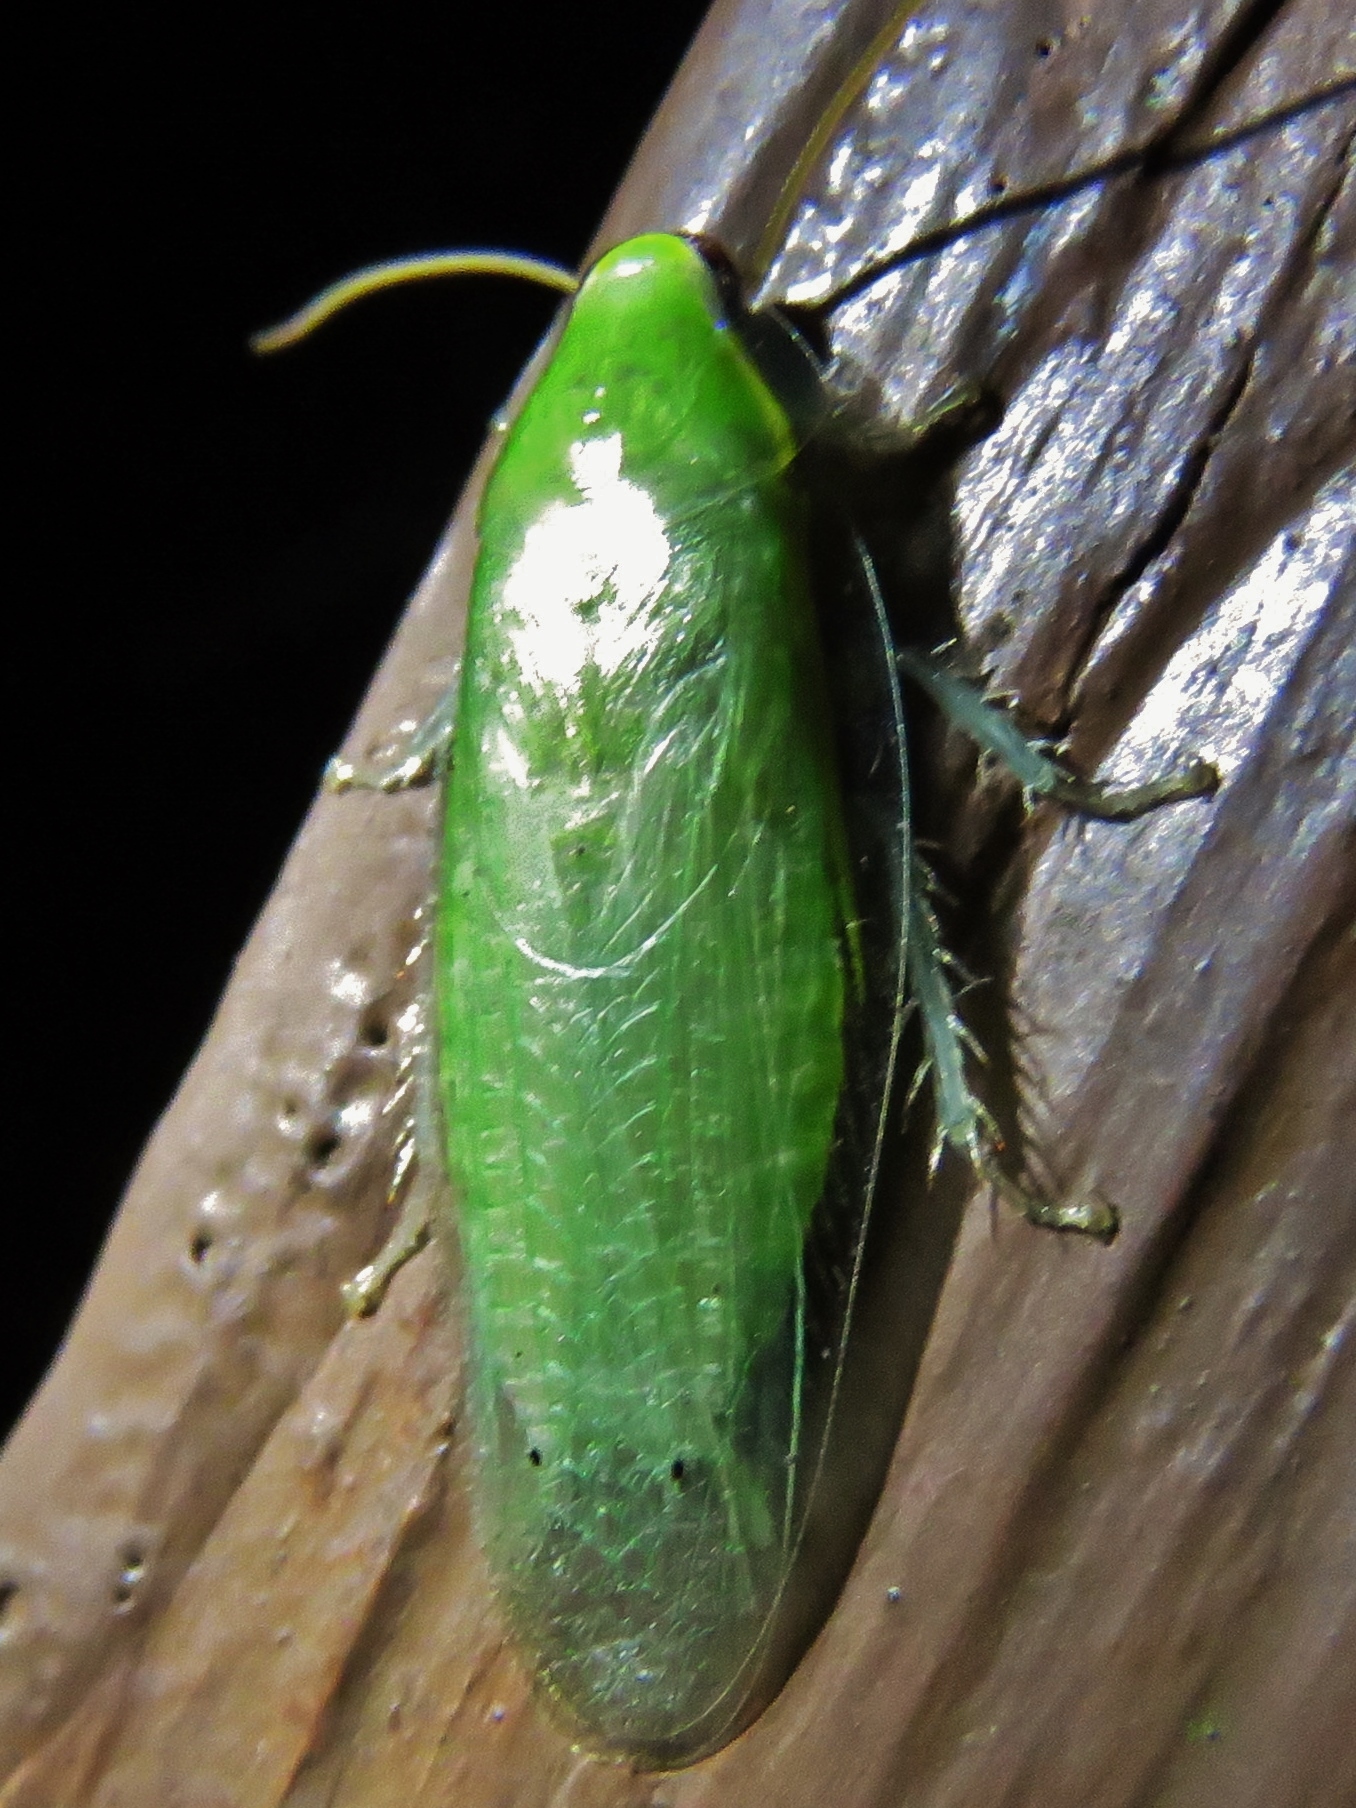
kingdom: Animalia
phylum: Arthropoda
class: Insecta
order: Blattodea
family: Blaberidae
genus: Panchlora
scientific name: Panchlora nivea
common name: Cuban cockroach
